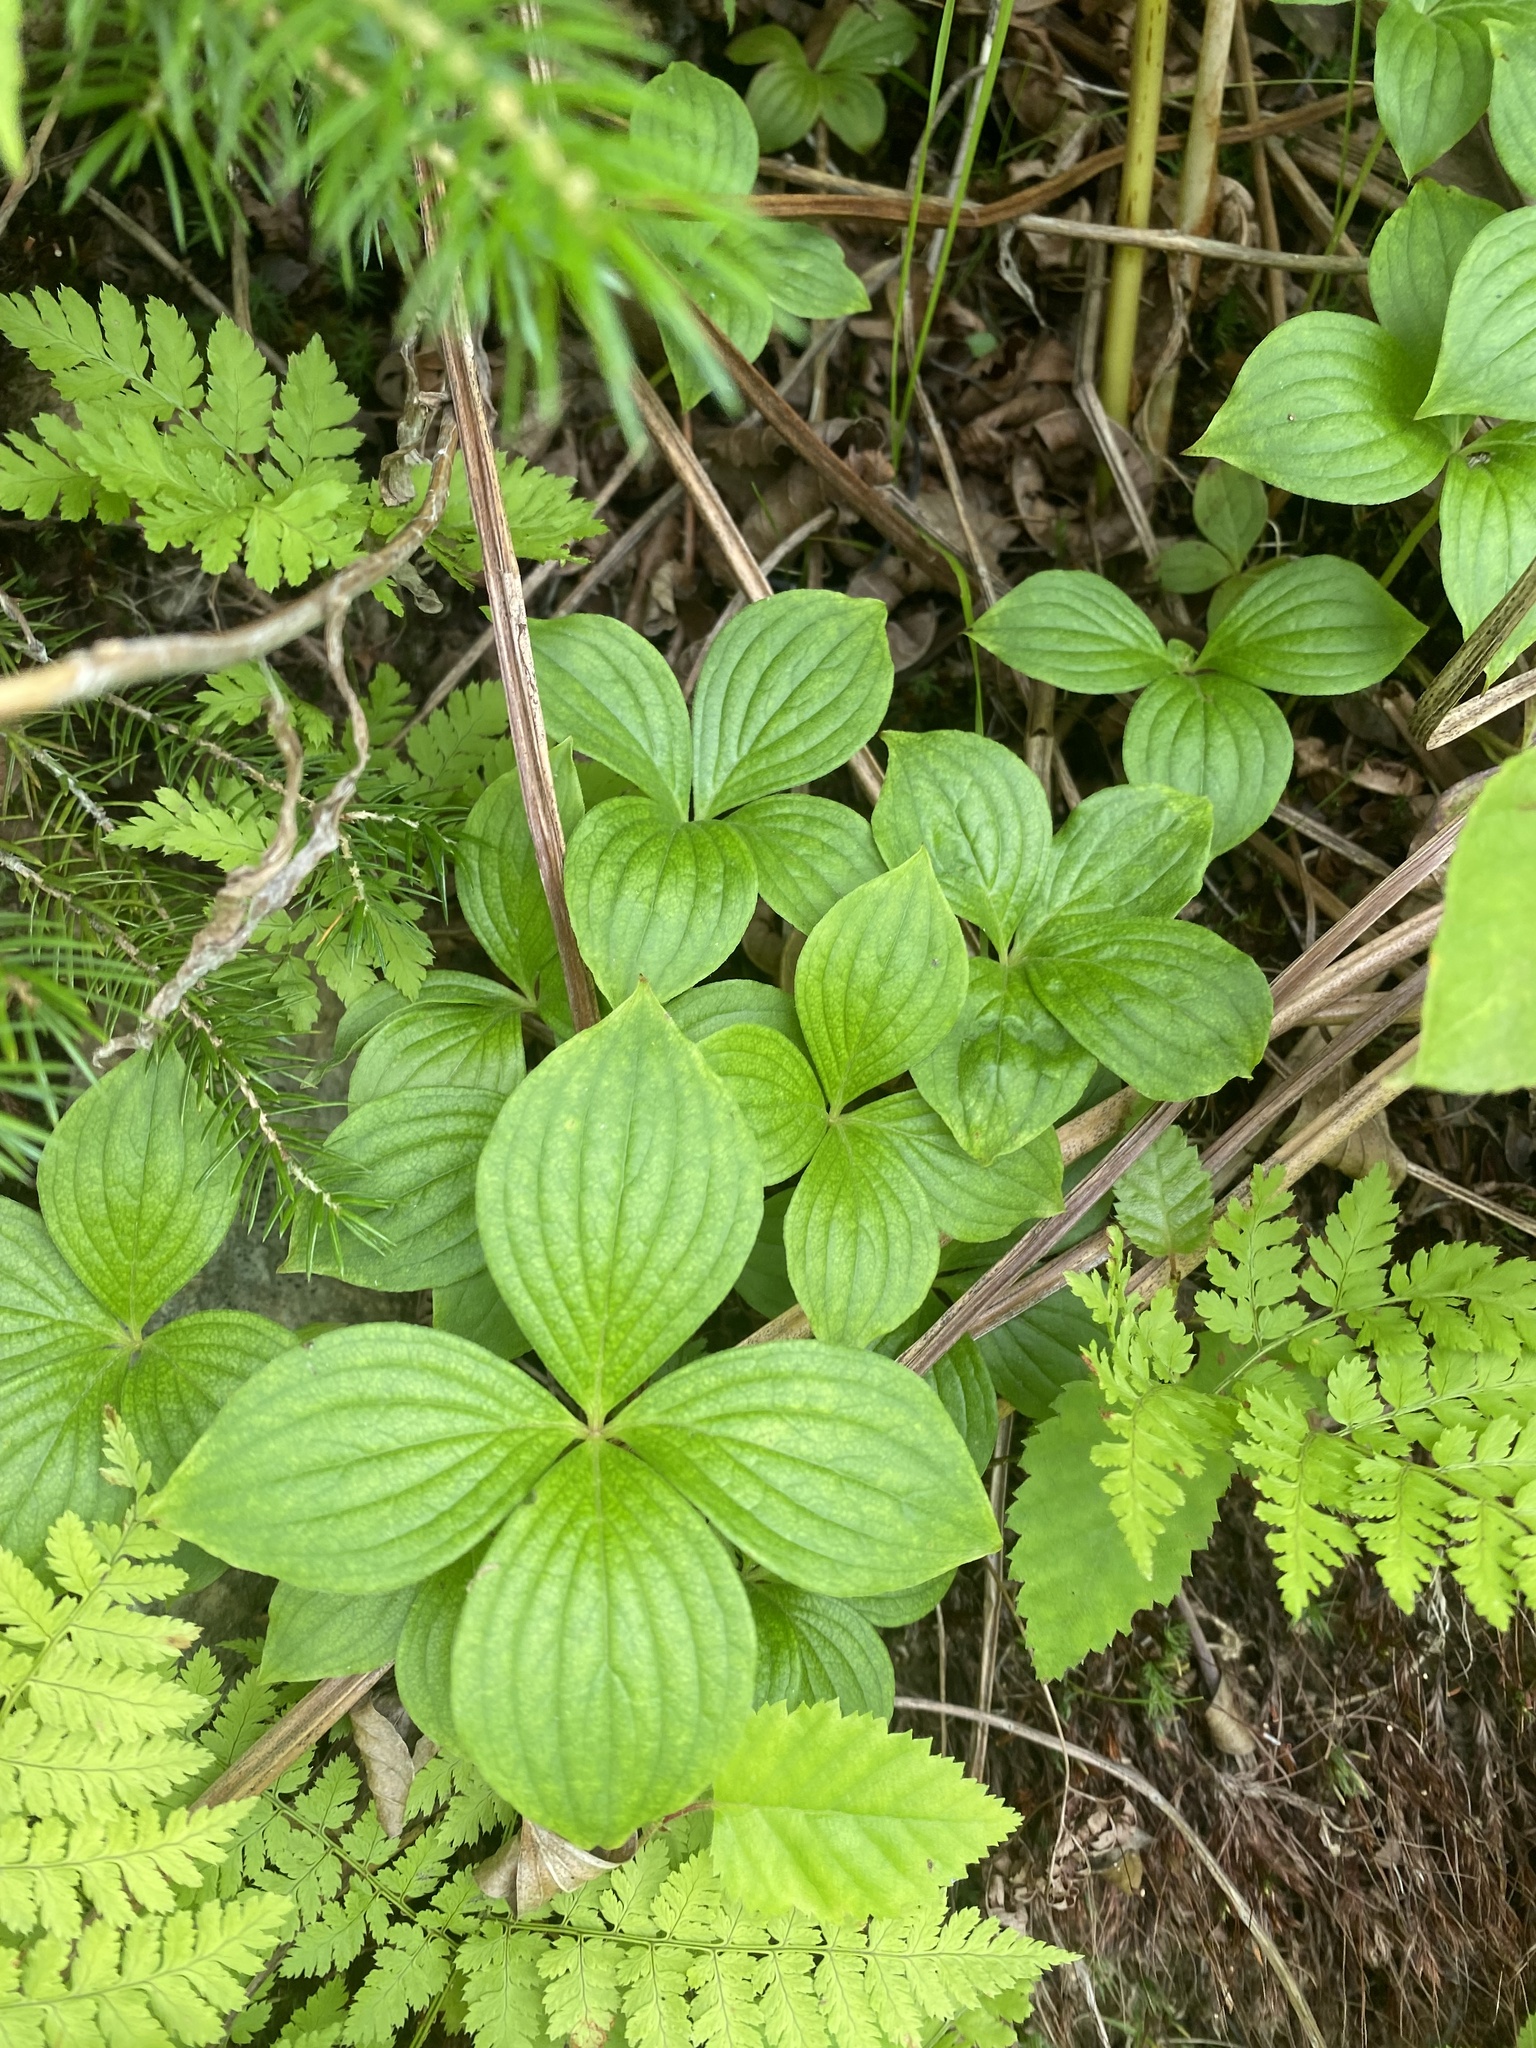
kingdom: Plantae
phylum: Tracheophyta
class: Magnoliopsida
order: Cornales
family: Cornaceae
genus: Cornus
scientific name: Cornus canadensis
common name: Creeping dogwood
